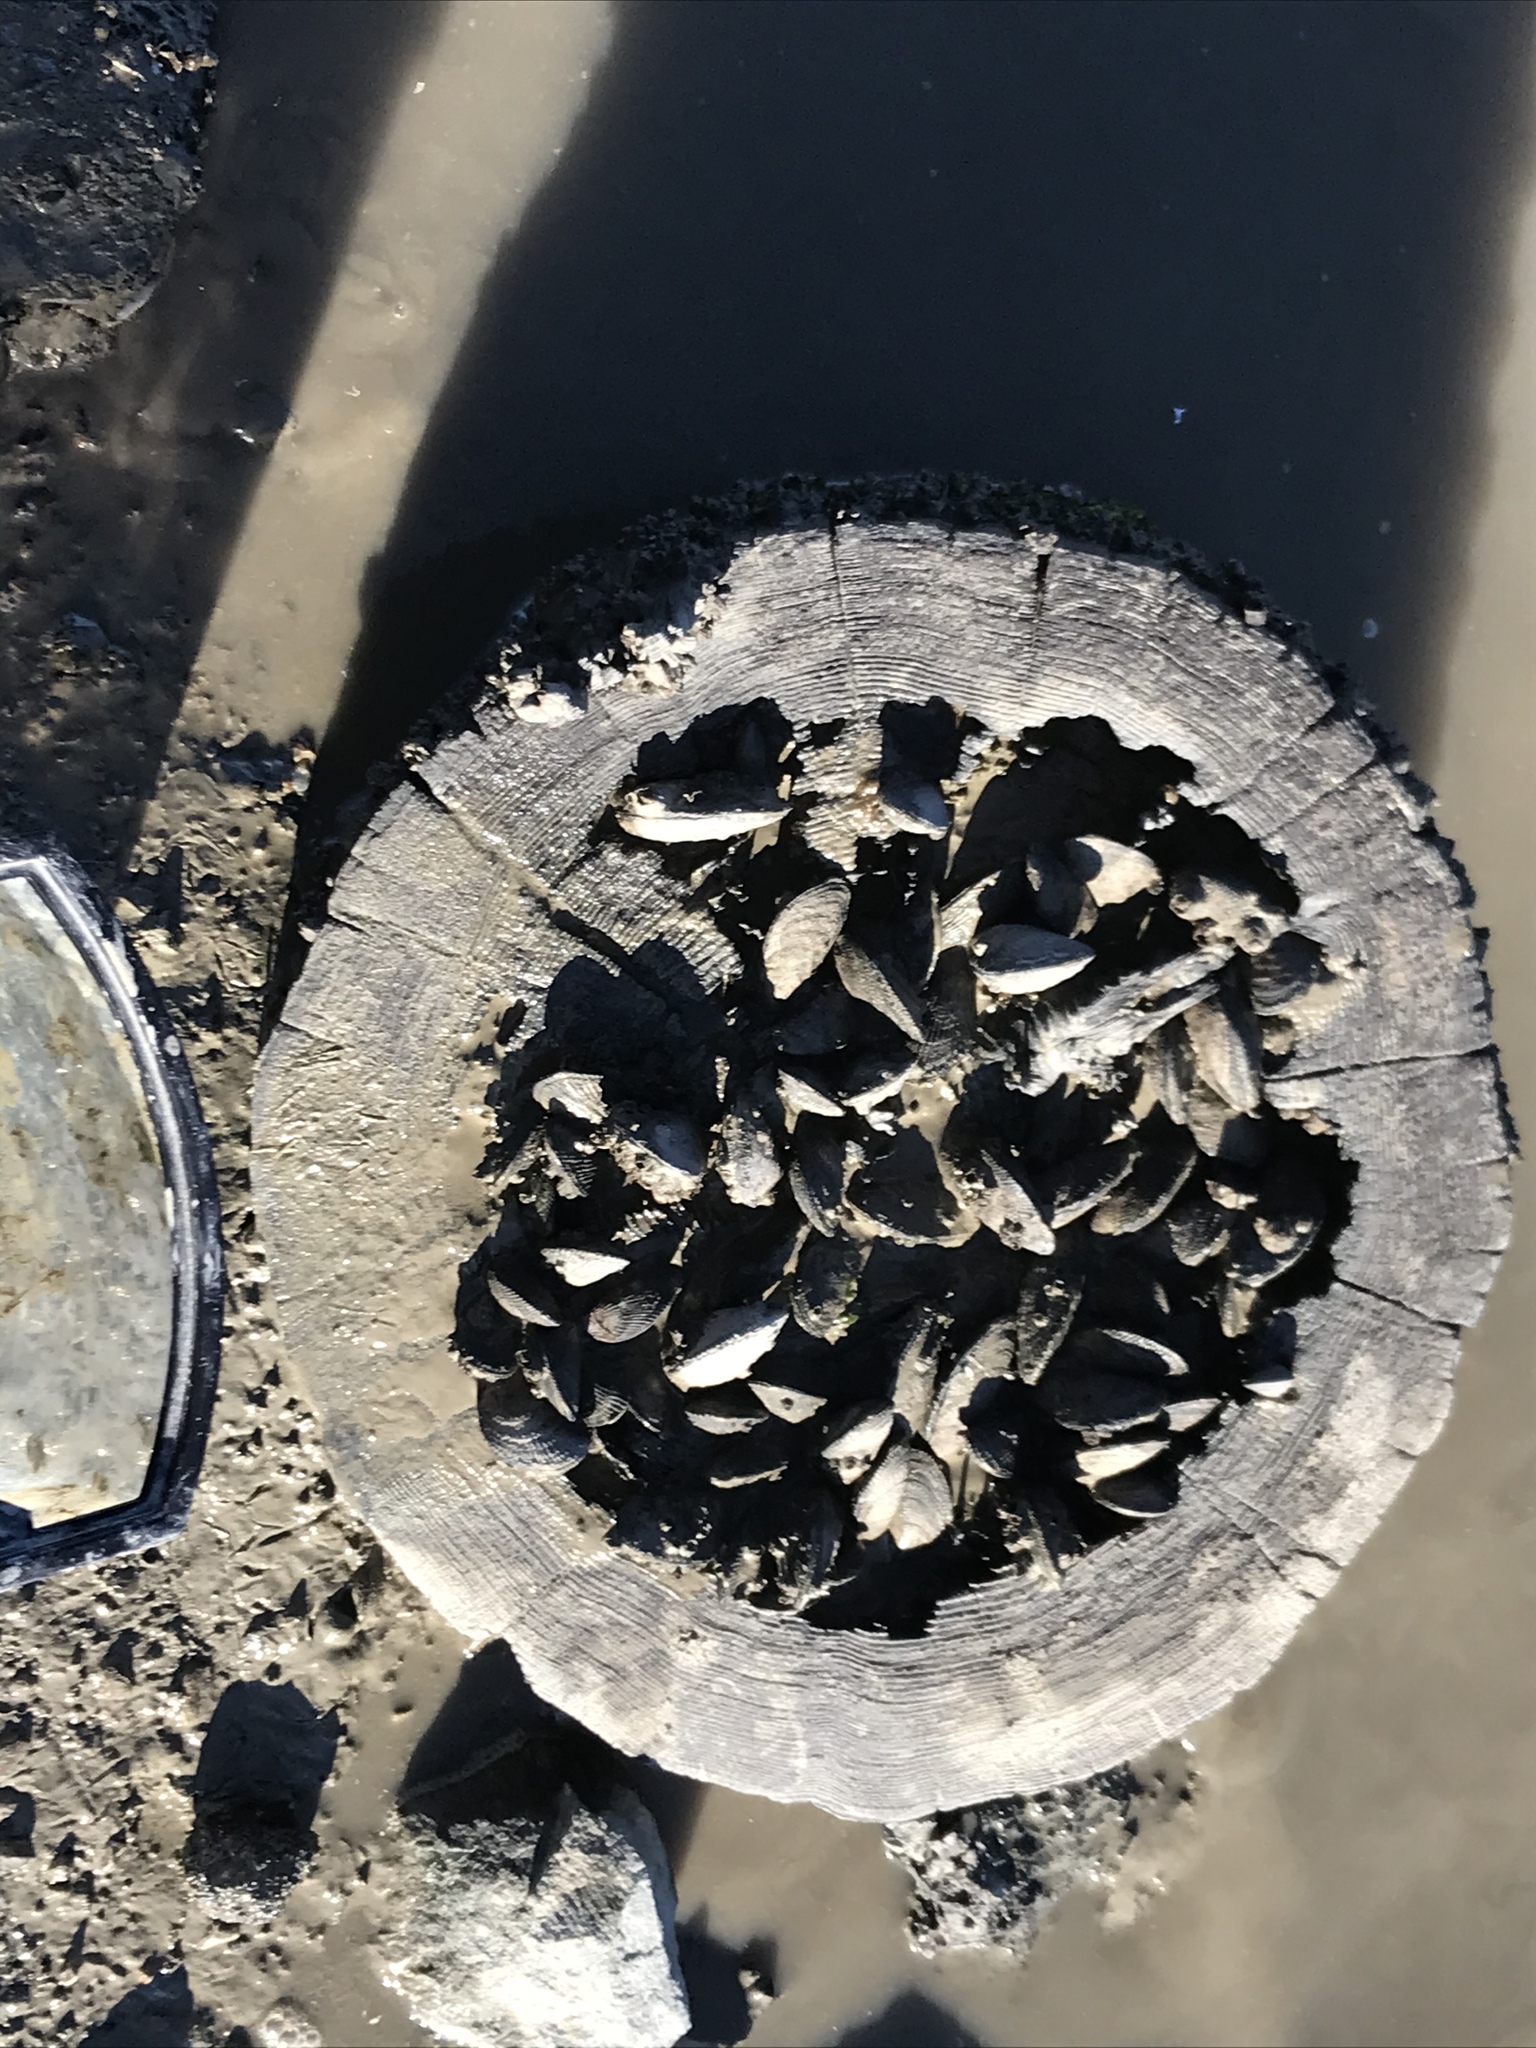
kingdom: Animalia
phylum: Mollusca
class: Bivalvia
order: Mytilida
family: Mytilidae
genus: Geukensia
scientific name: Geukensia demissa
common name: Ribbed mussel
